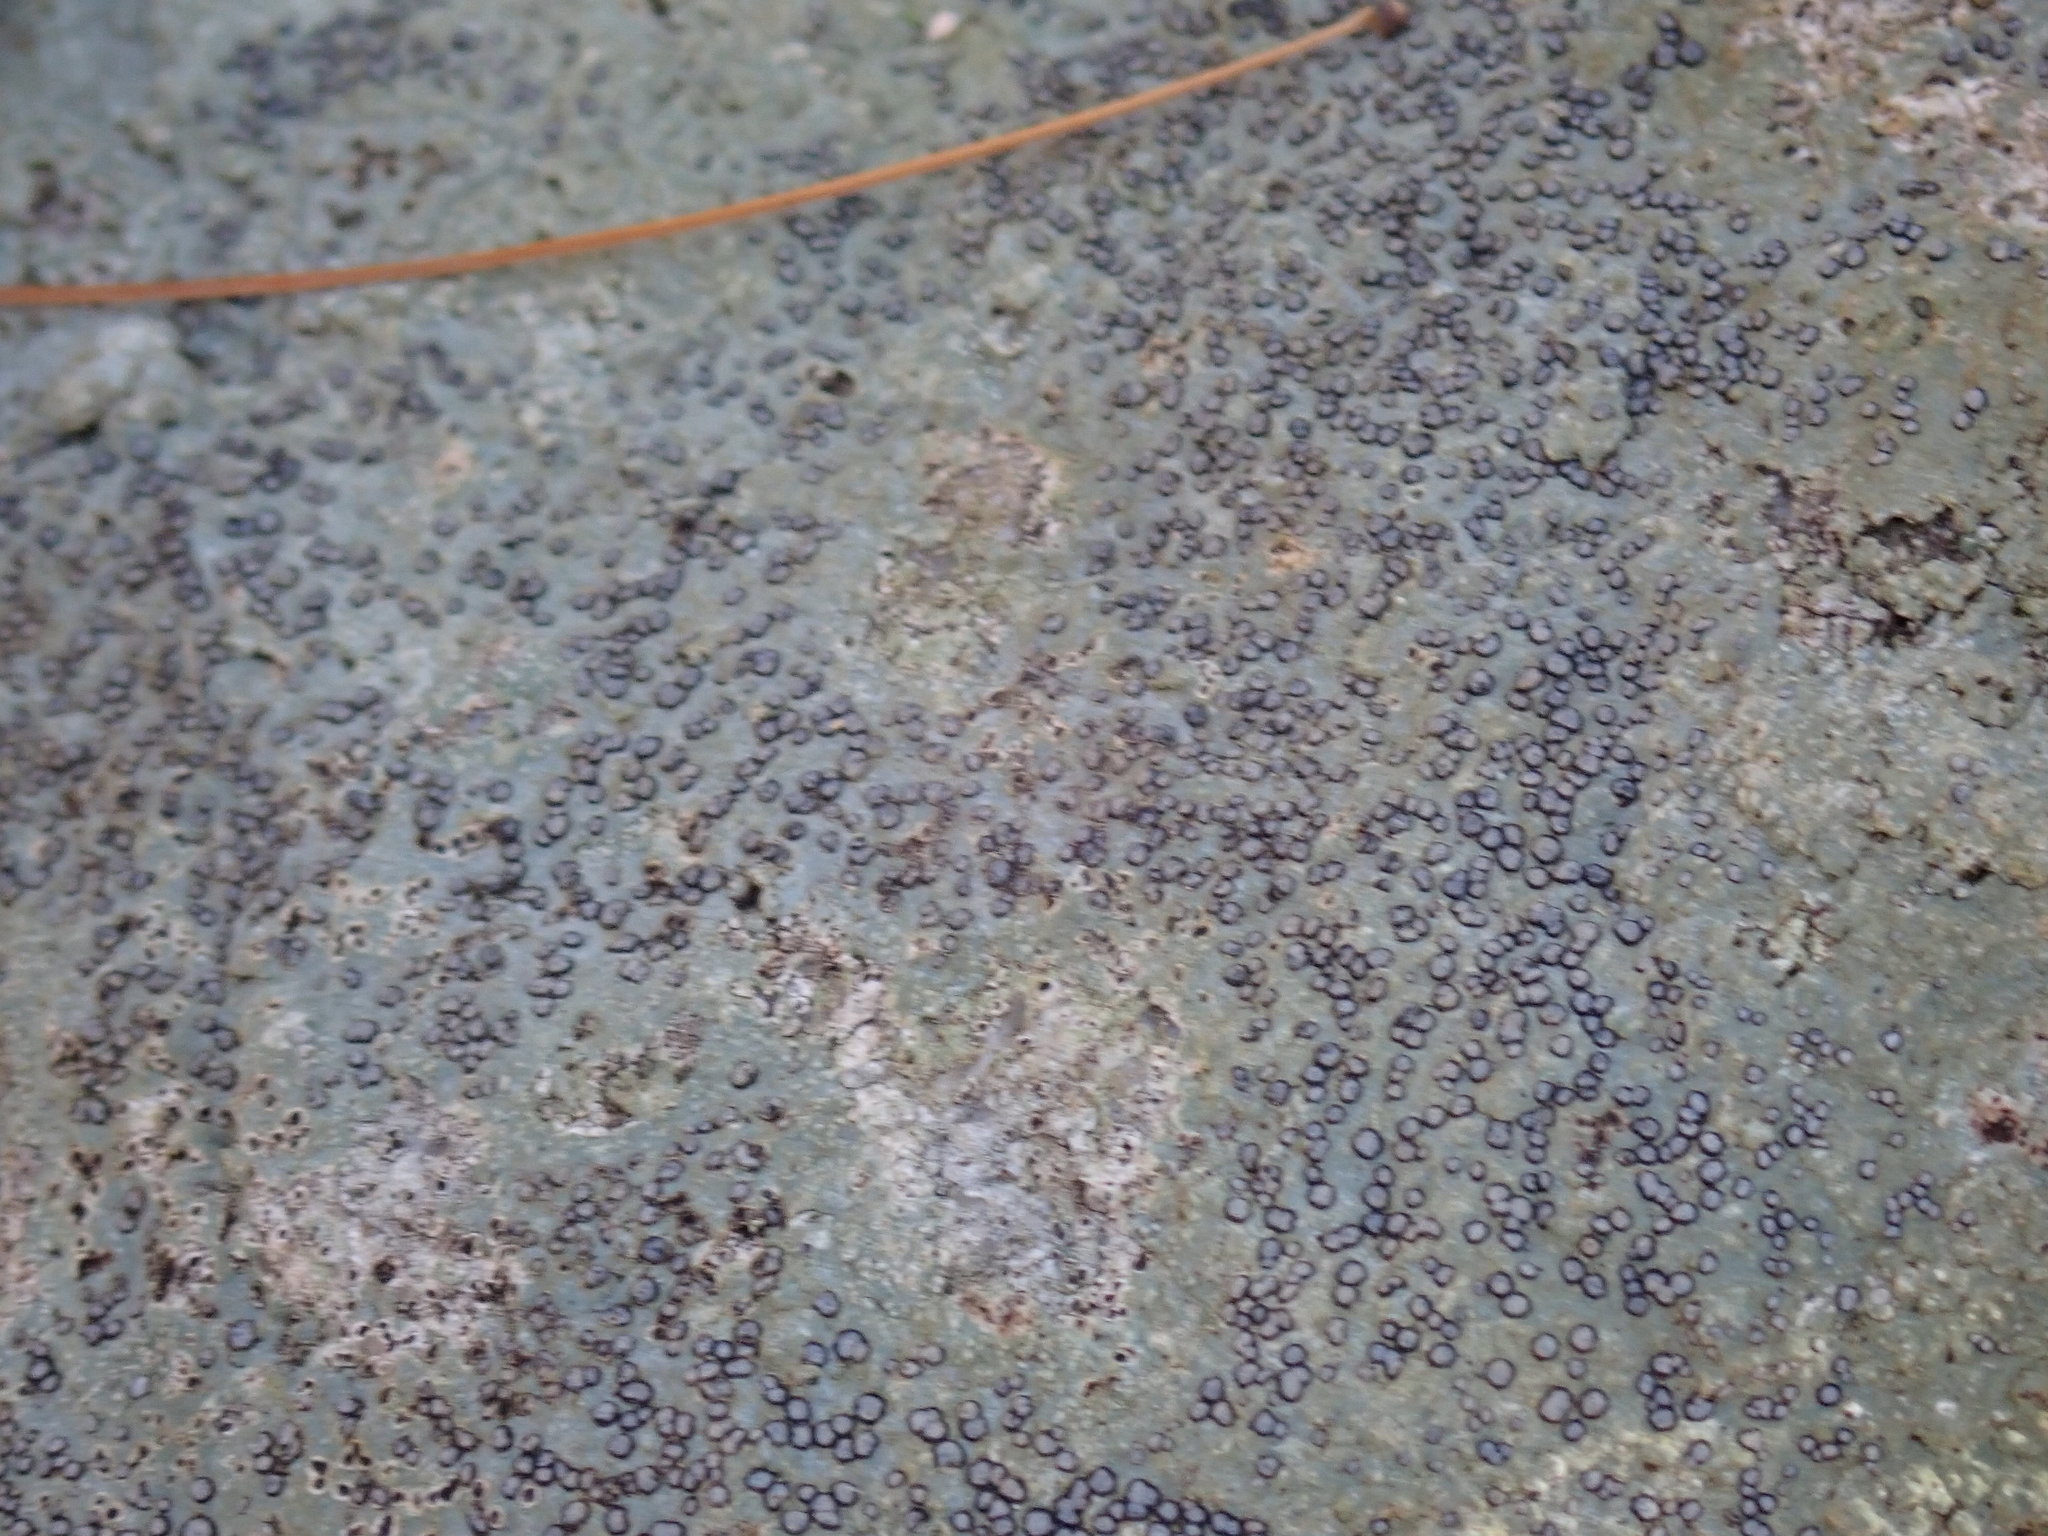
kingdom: Fungi
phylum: Ascomycota
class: Lecanoromycetes
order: Lecideales
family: Lecideaceae
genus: Porpidia
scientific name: Porpidia albocaerulescens
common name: Smokey-eyed boulder lichen
